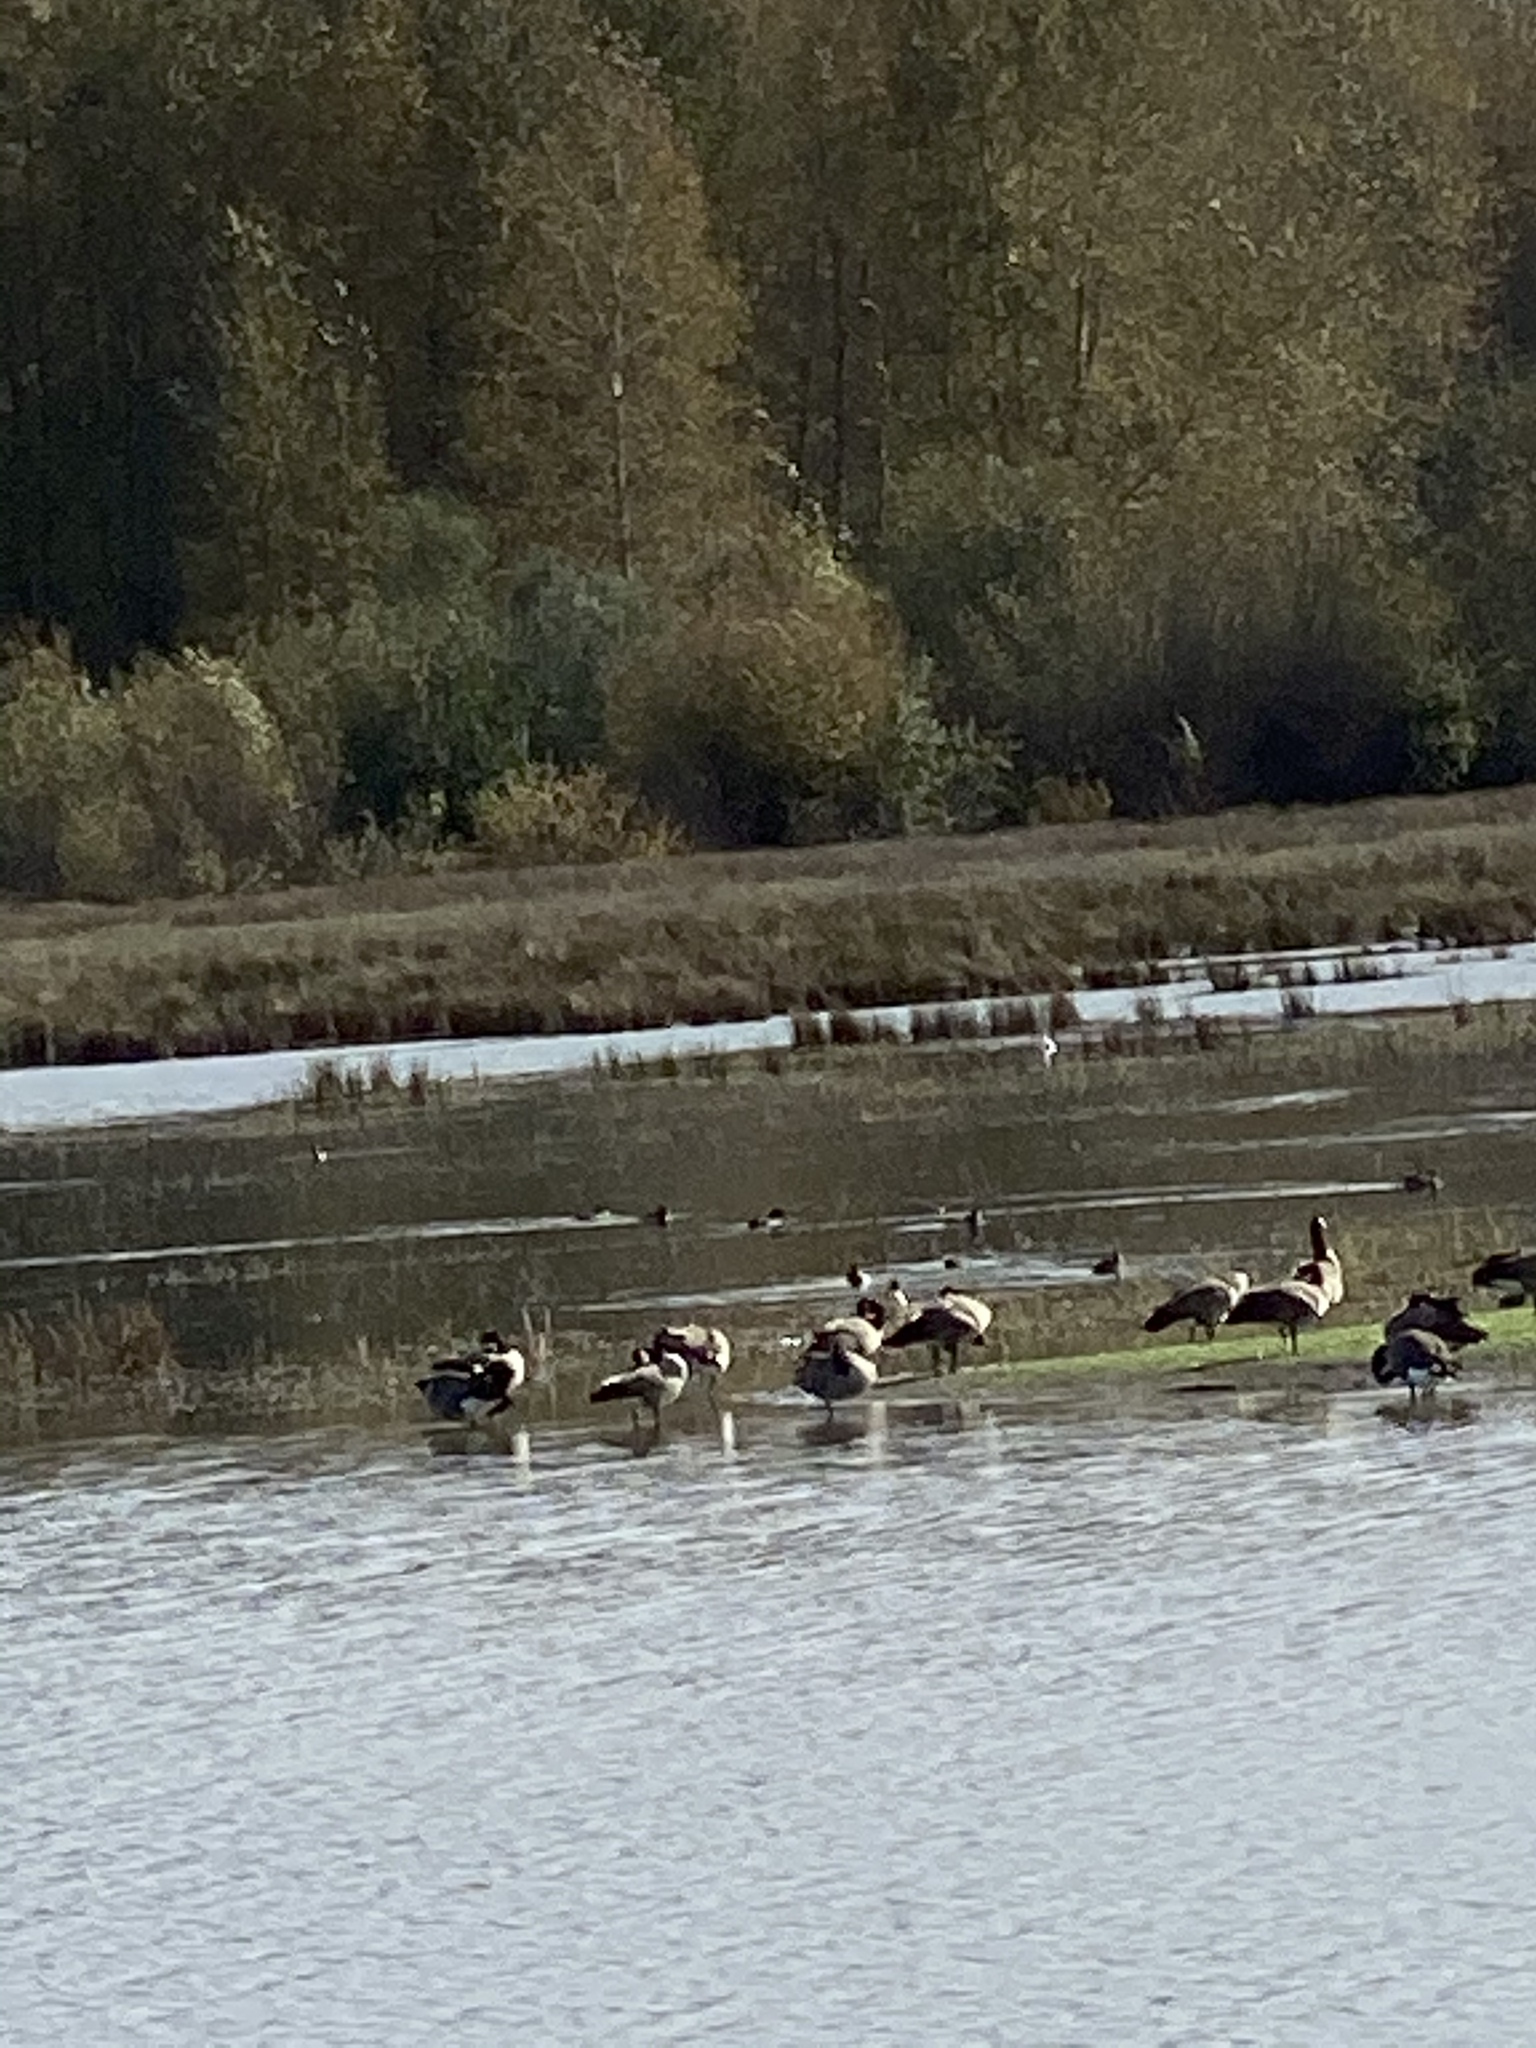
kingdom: Animalia
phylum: Chordata
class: Aves
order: Anseriformes
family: Anatidae
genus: Branta
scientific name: Branta canadensis
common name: Canada goose
